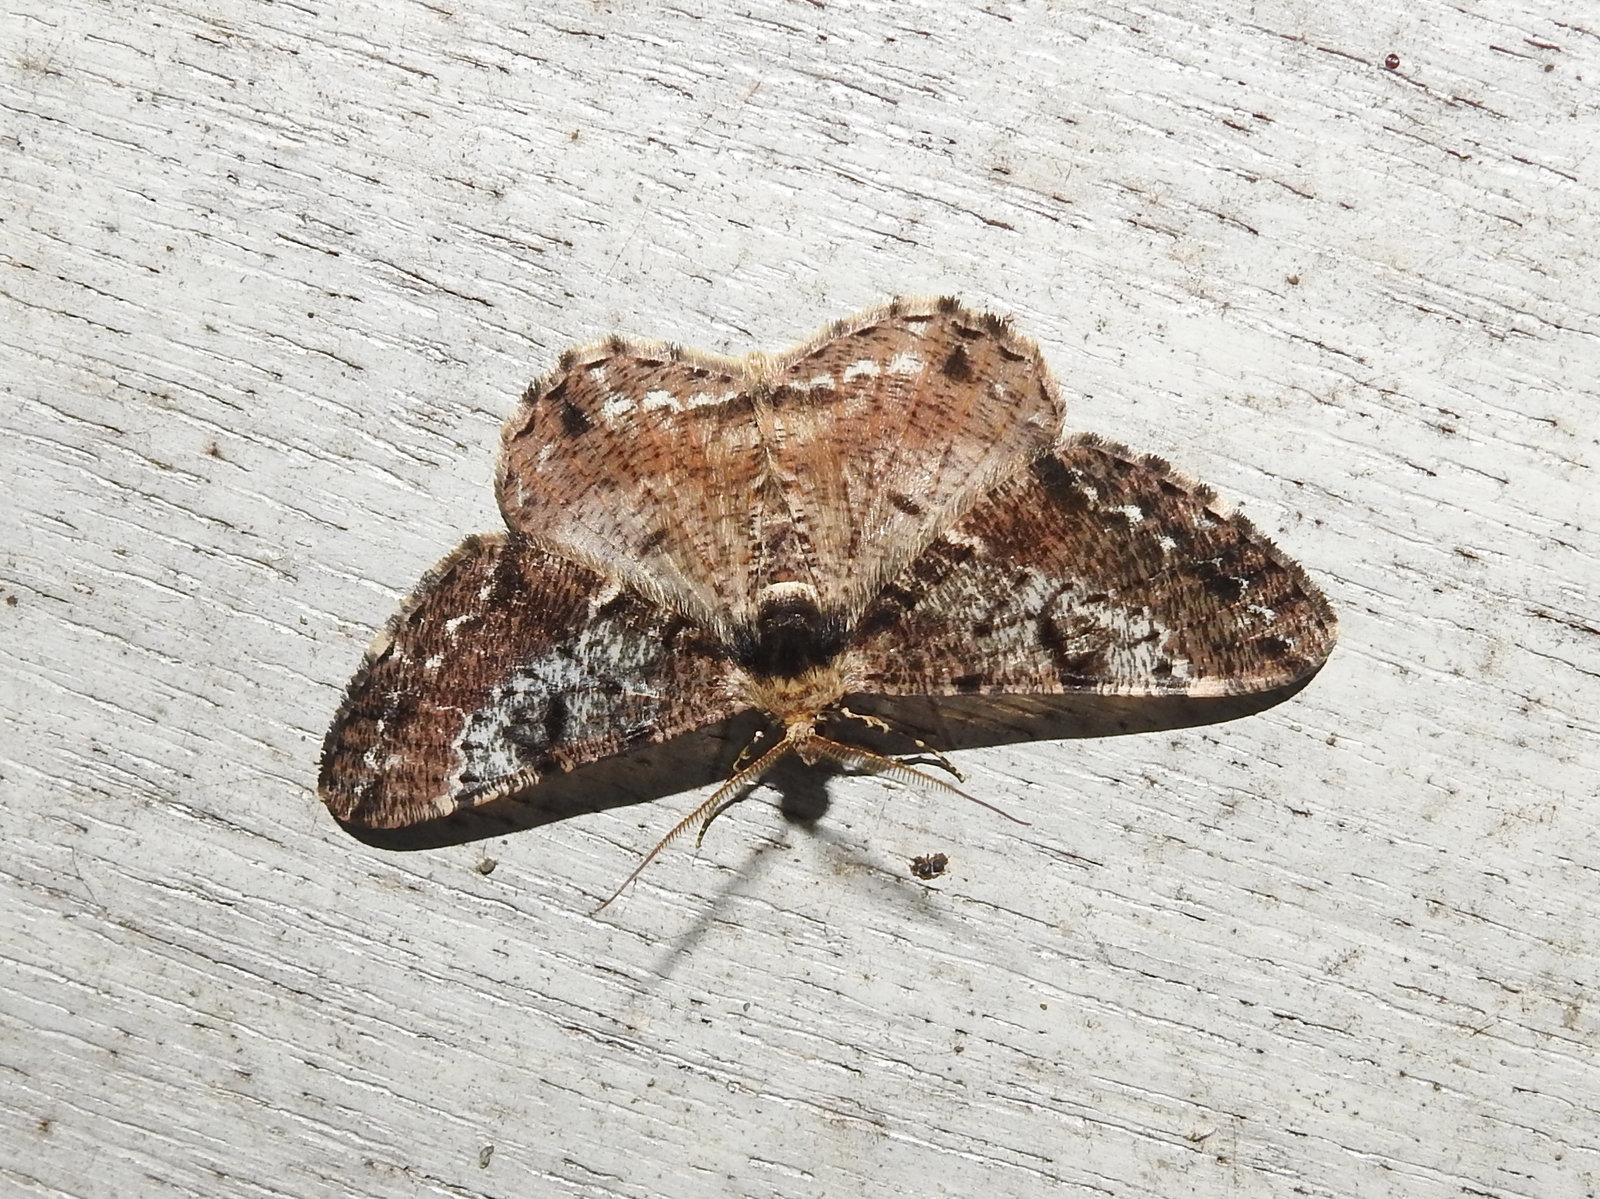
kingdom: Animalia
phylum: Arthropoda
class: Insecta
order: Lepidoptera
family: Geometridae
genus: Alcis
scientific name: Alcis variegata
